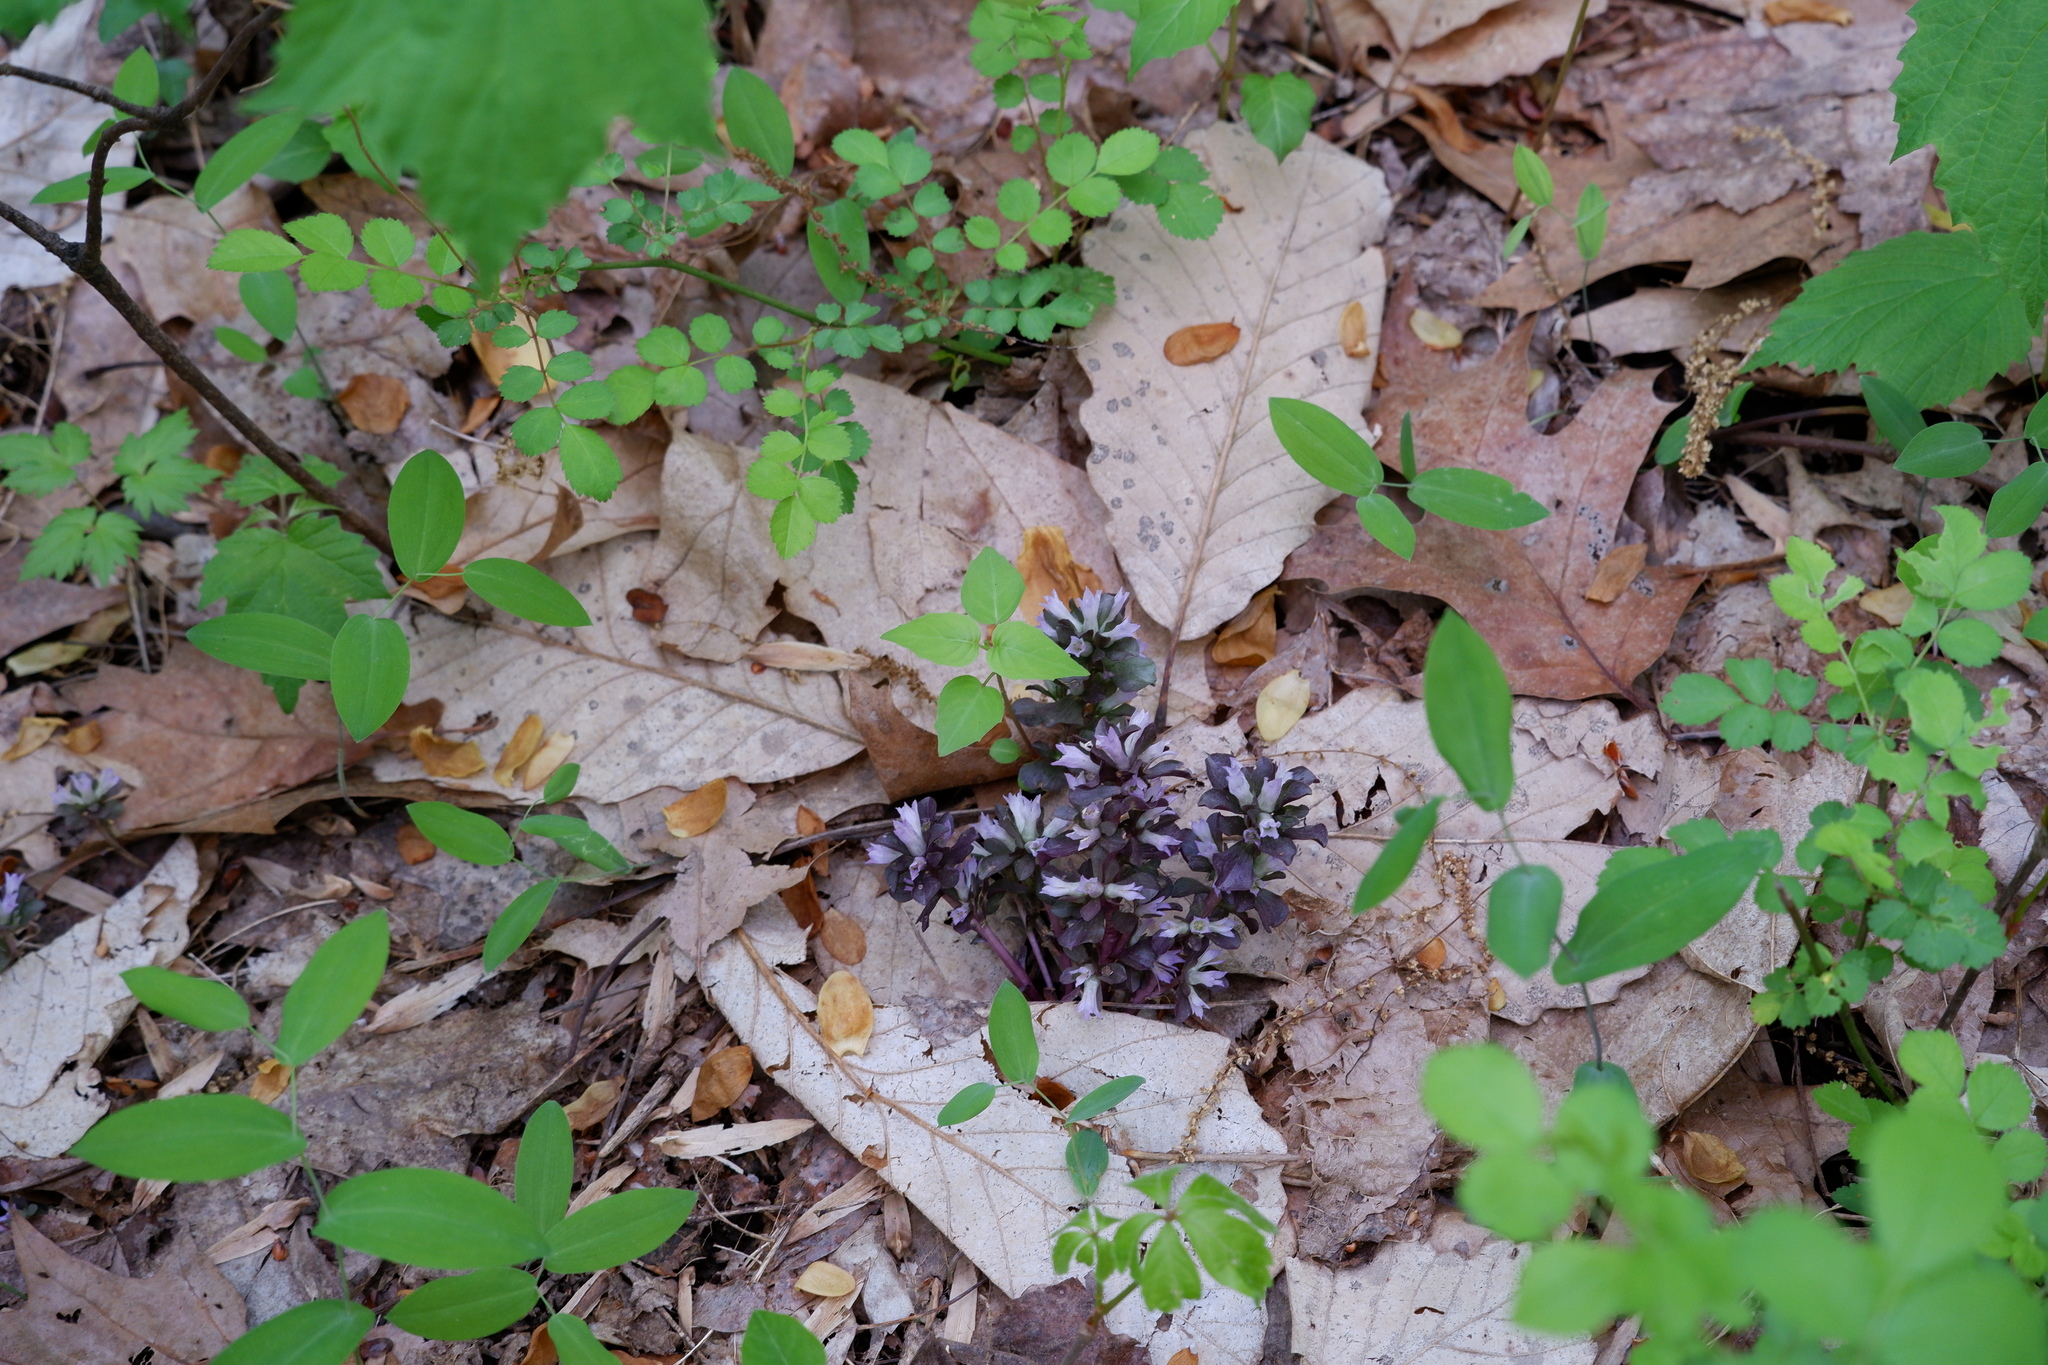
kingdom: Plantae
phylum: Tracheophyta
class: Magnoliopsida
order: Gentianales
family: Gentianaceae
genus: Obolaria
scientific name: Obolaria virginica
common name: Pennywort
